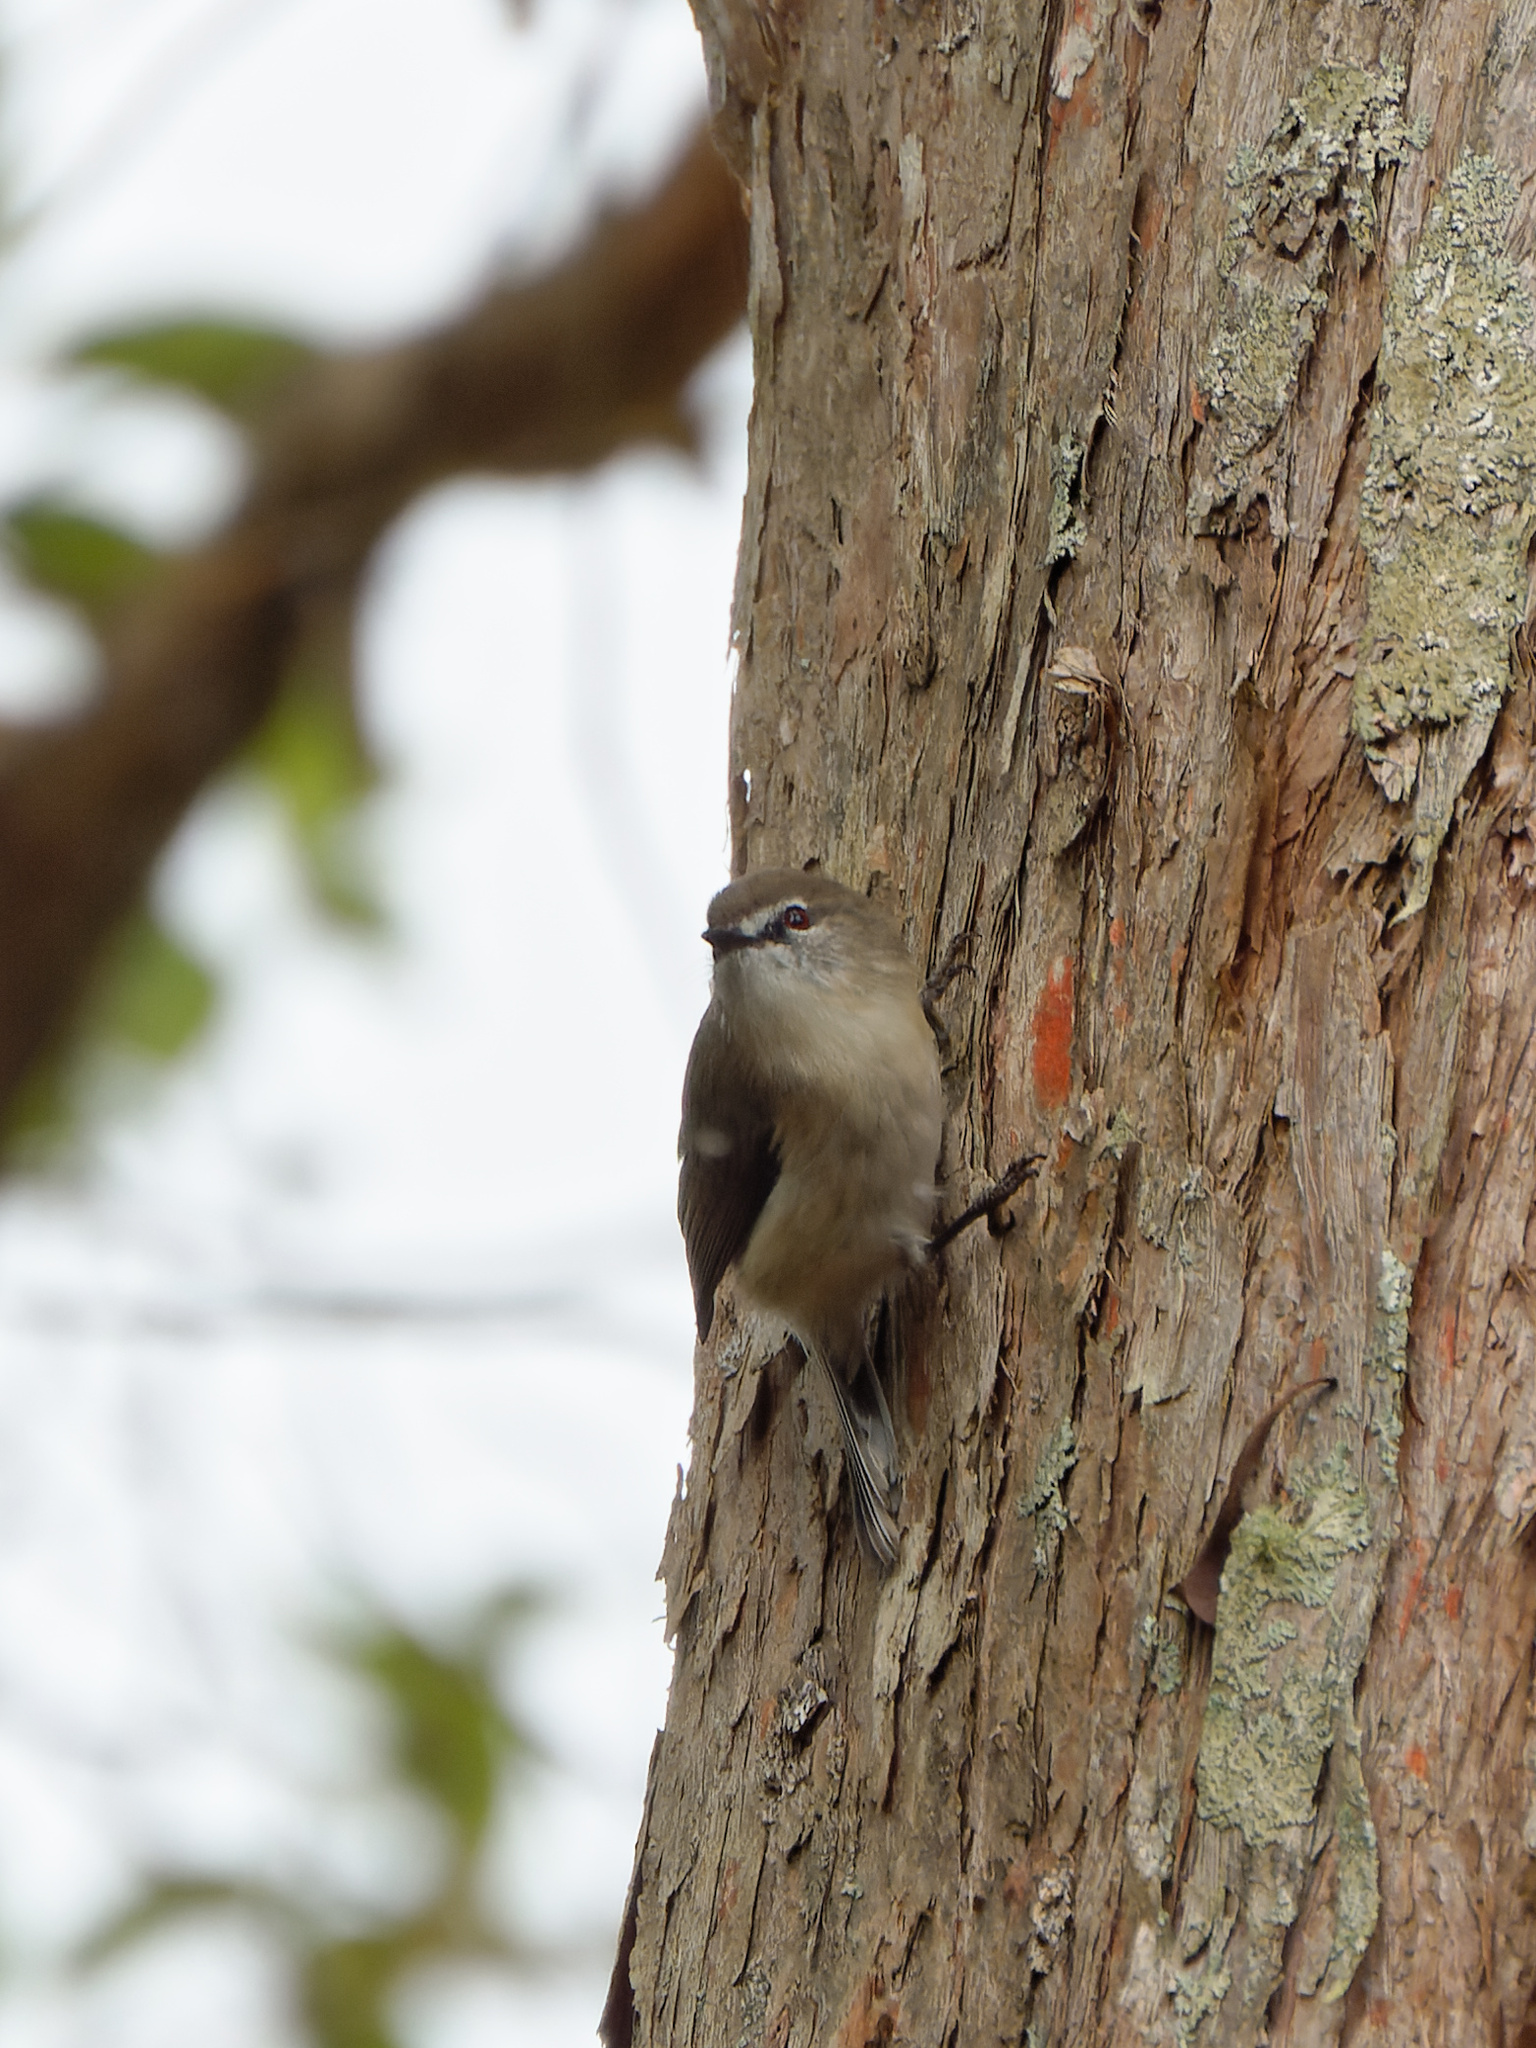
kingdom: Animalia
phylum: Chordata
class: Aves
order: Passeriformes
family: Acanthizidae
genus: Gerygone
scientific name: Gerygone mouki
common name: Brown gerygone
